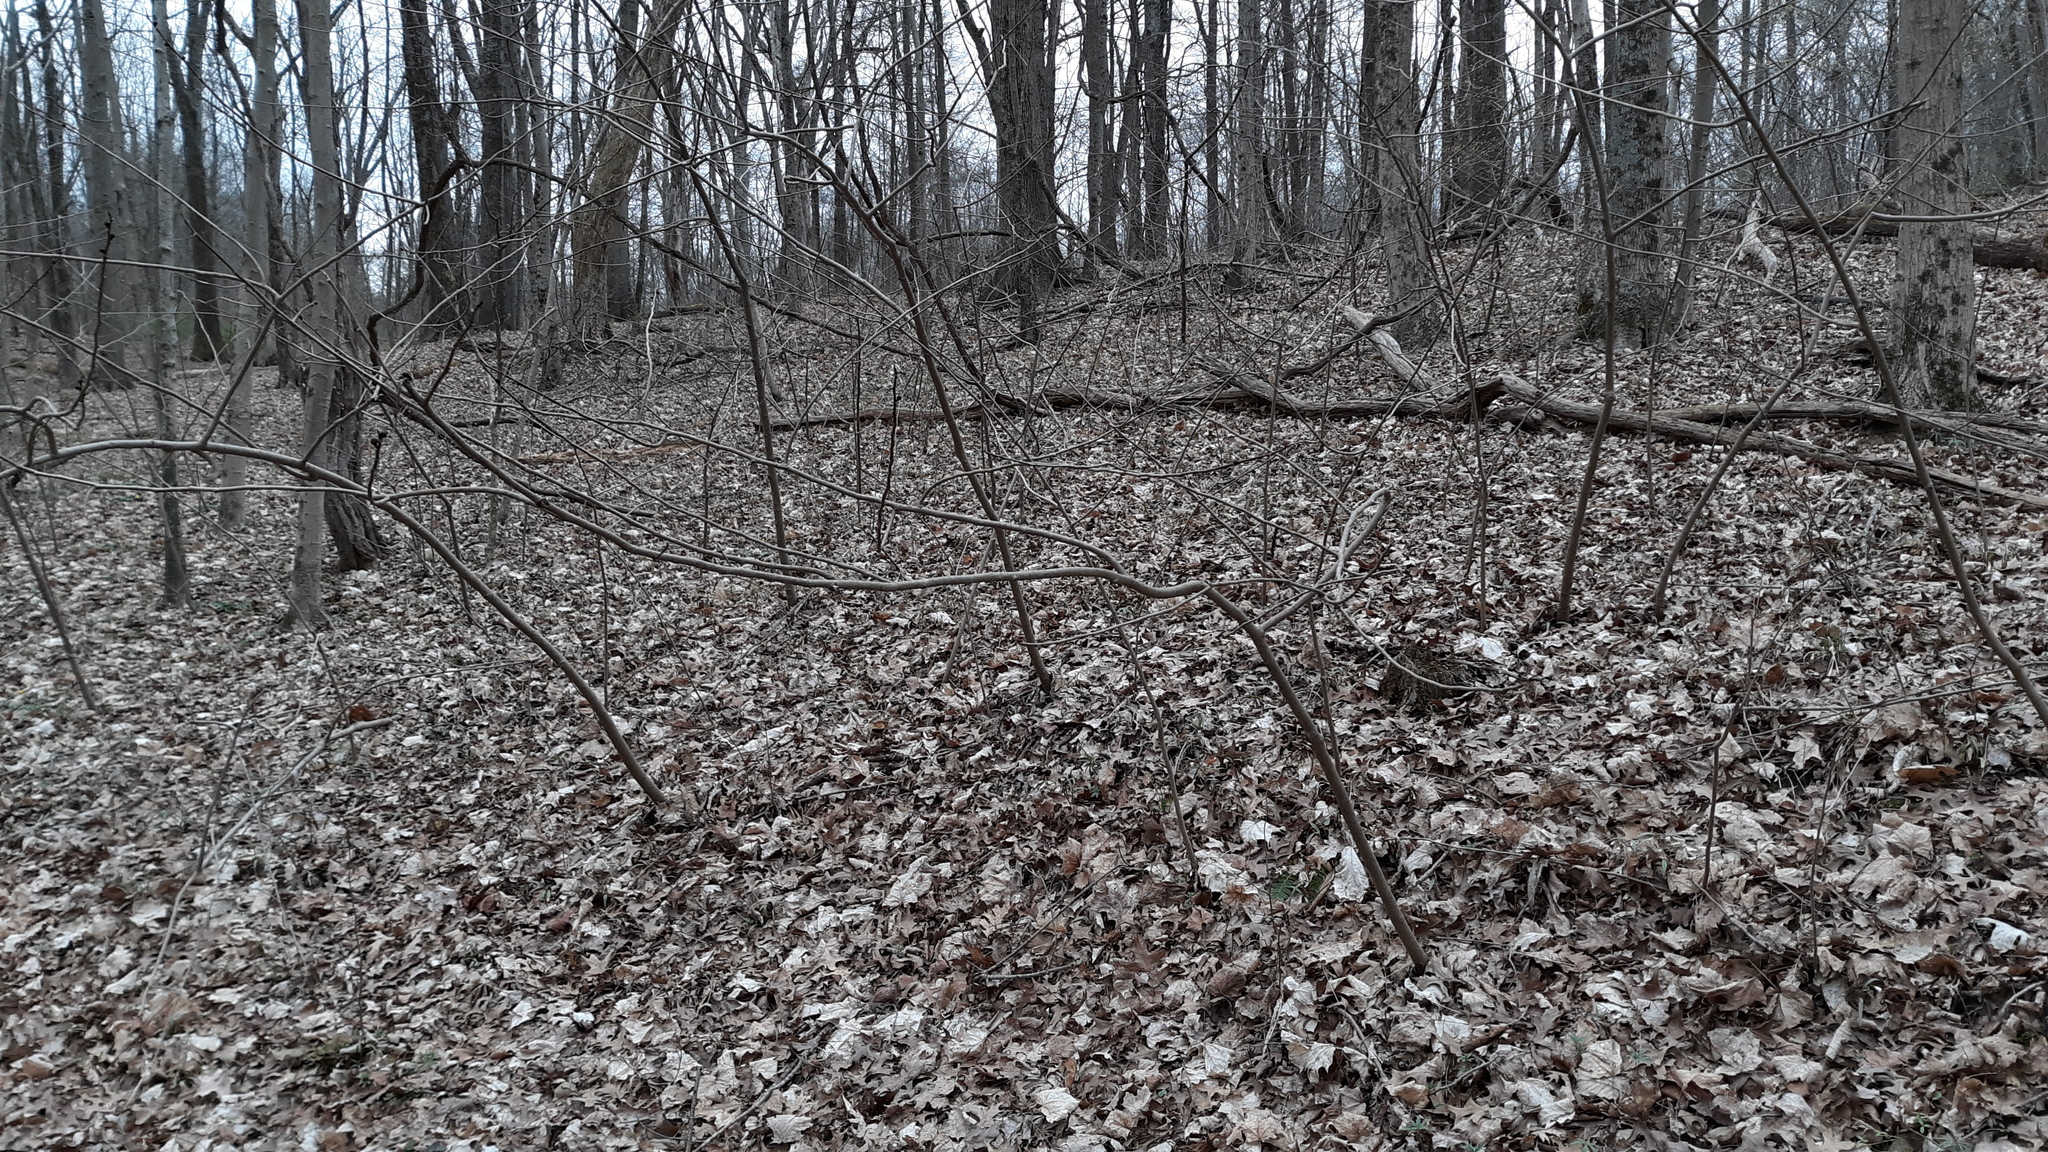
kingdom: Plantae
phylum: Tracheophyta
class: Magnoliopsida
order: Magnoliales
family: Annonaceae
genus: Asimina
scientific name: Asimina triloba
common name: Dog-banana
